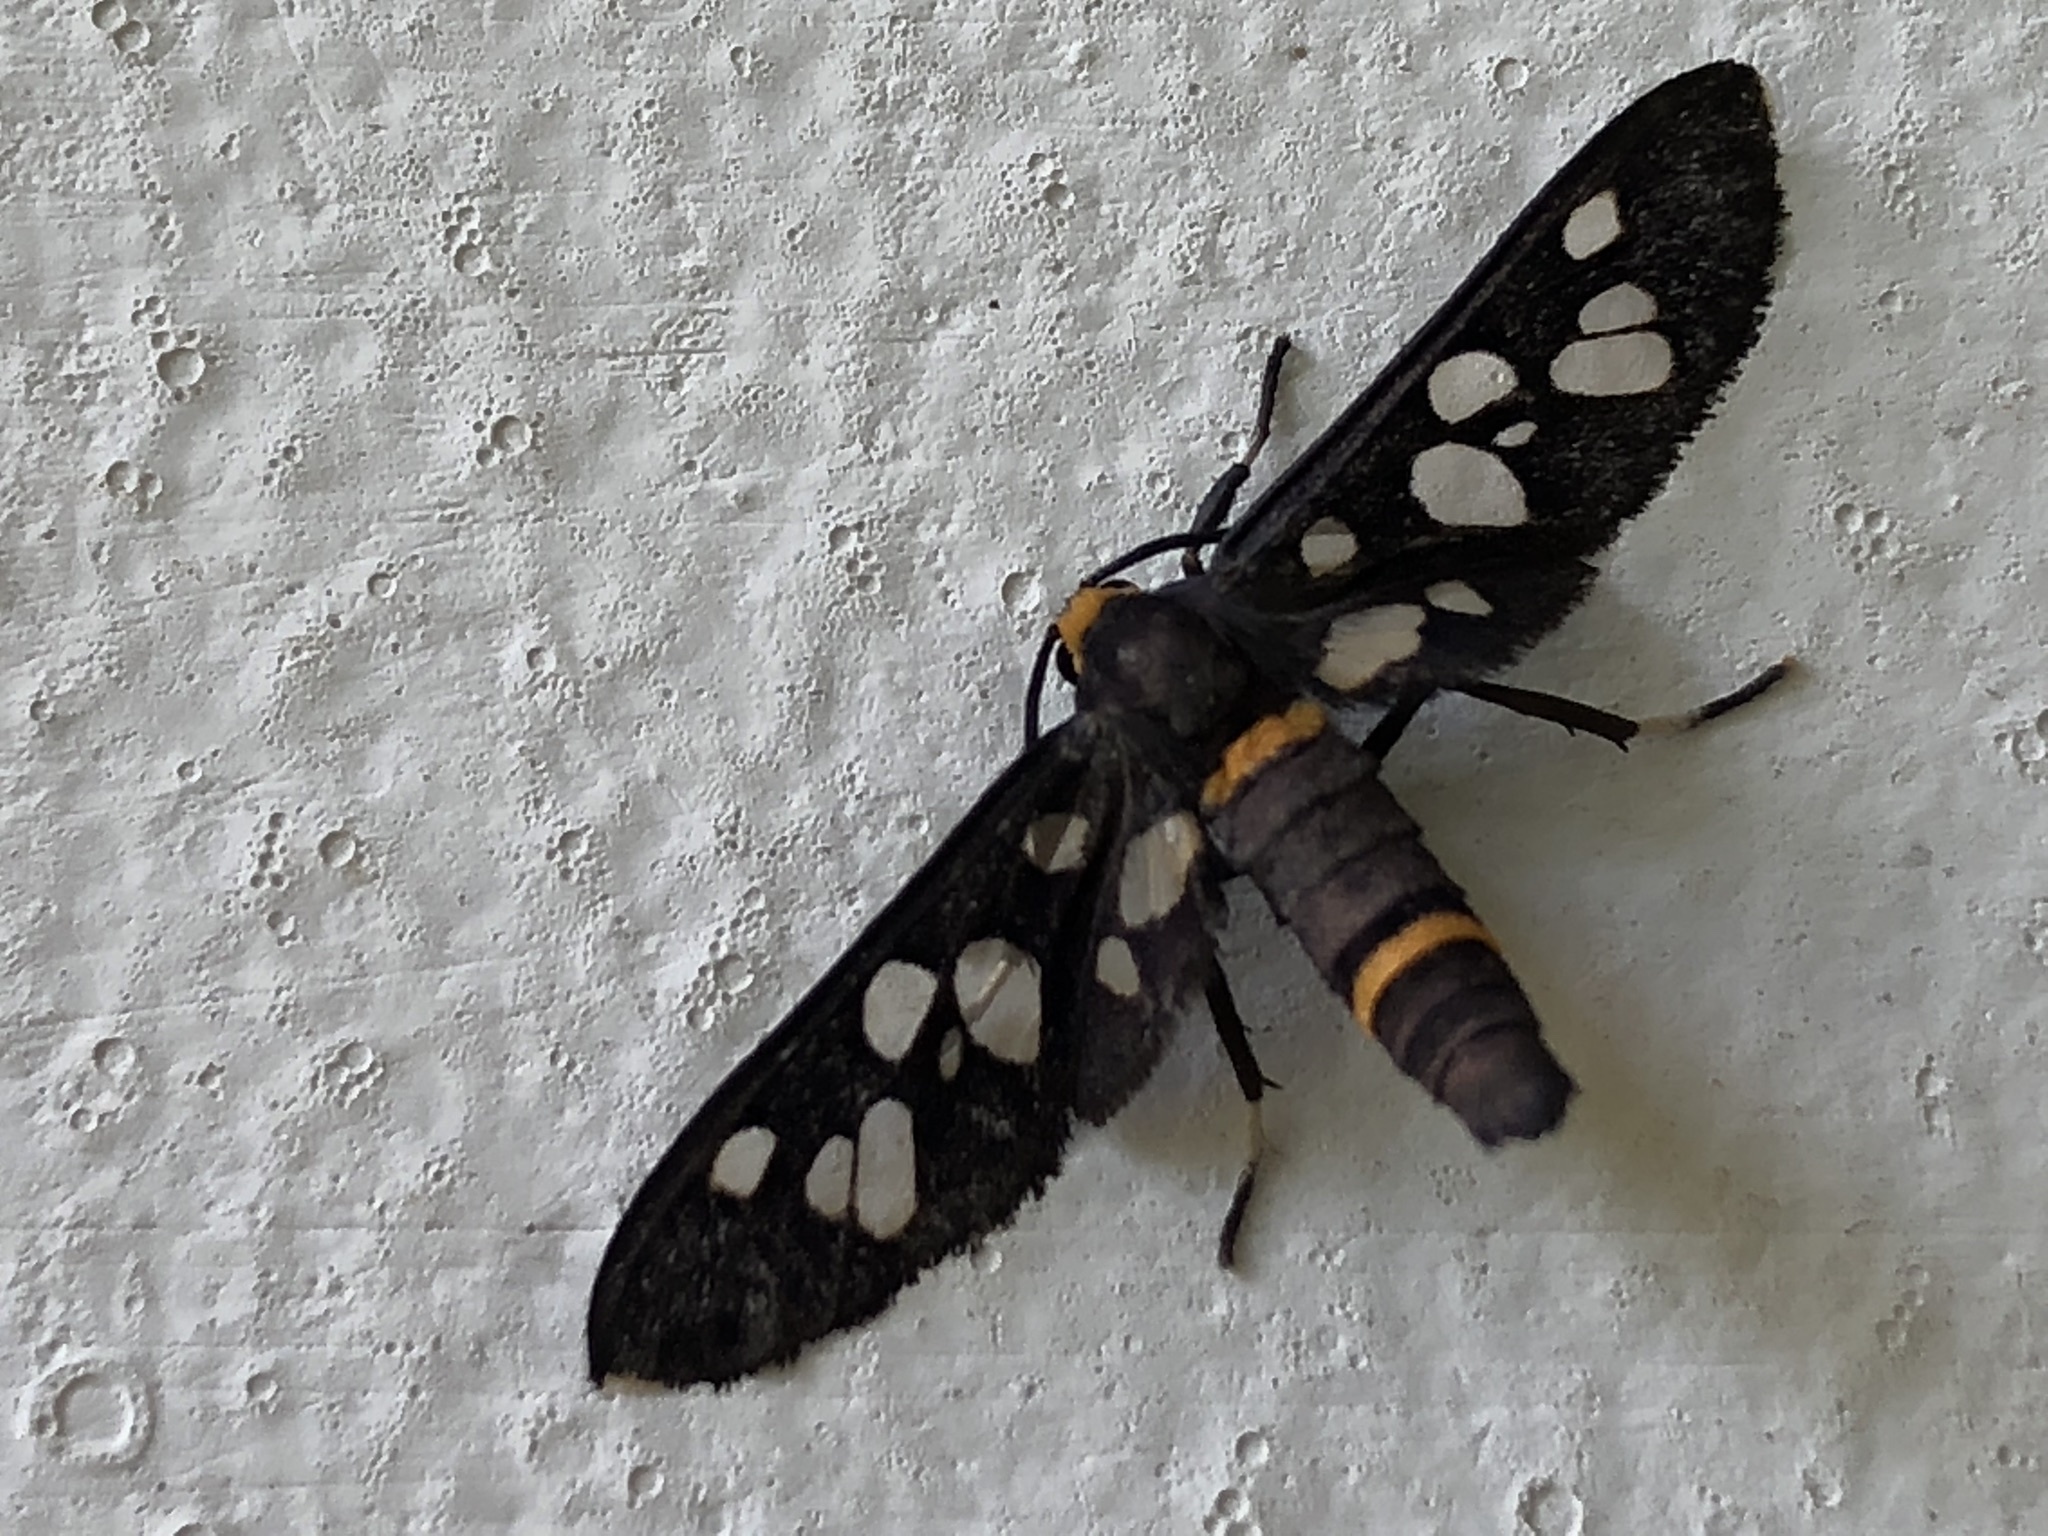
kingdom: Animalia
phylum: Arthropoda
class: Insecta
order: Lepidoptera
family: Erebidae
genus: Amata
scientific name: Amata cyssea
